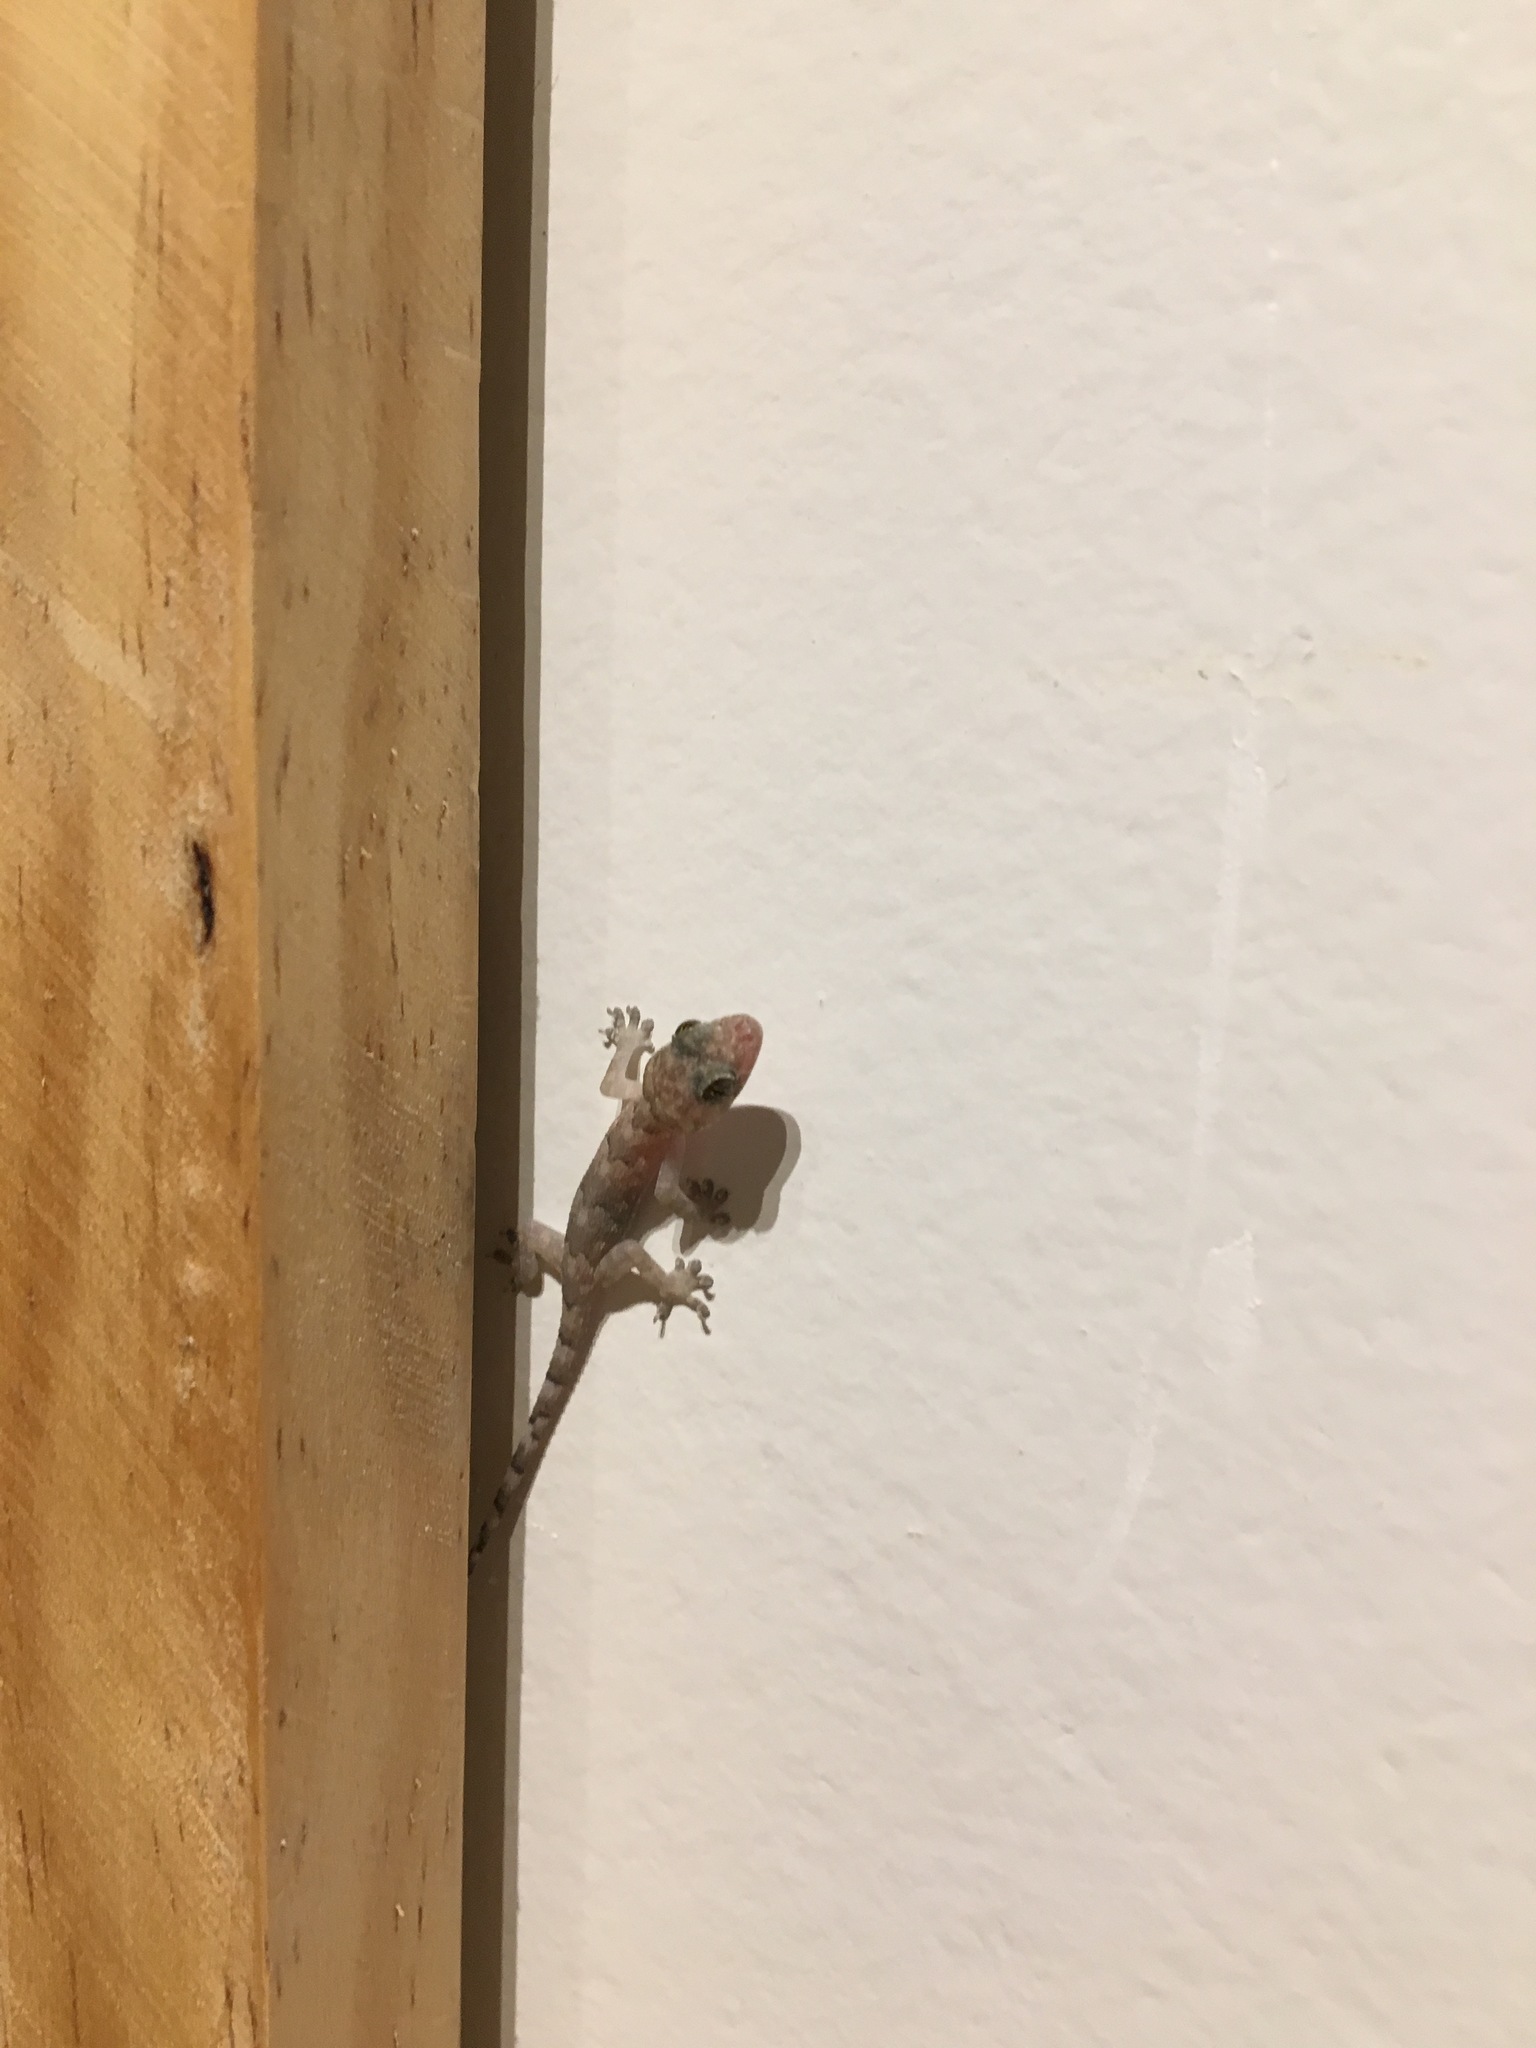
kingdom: Animalia
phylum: Chordata
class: Squamata
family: Gekkonidae
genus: Hemidactylus
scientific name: Hemidactylus mabouia
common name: House gecko
